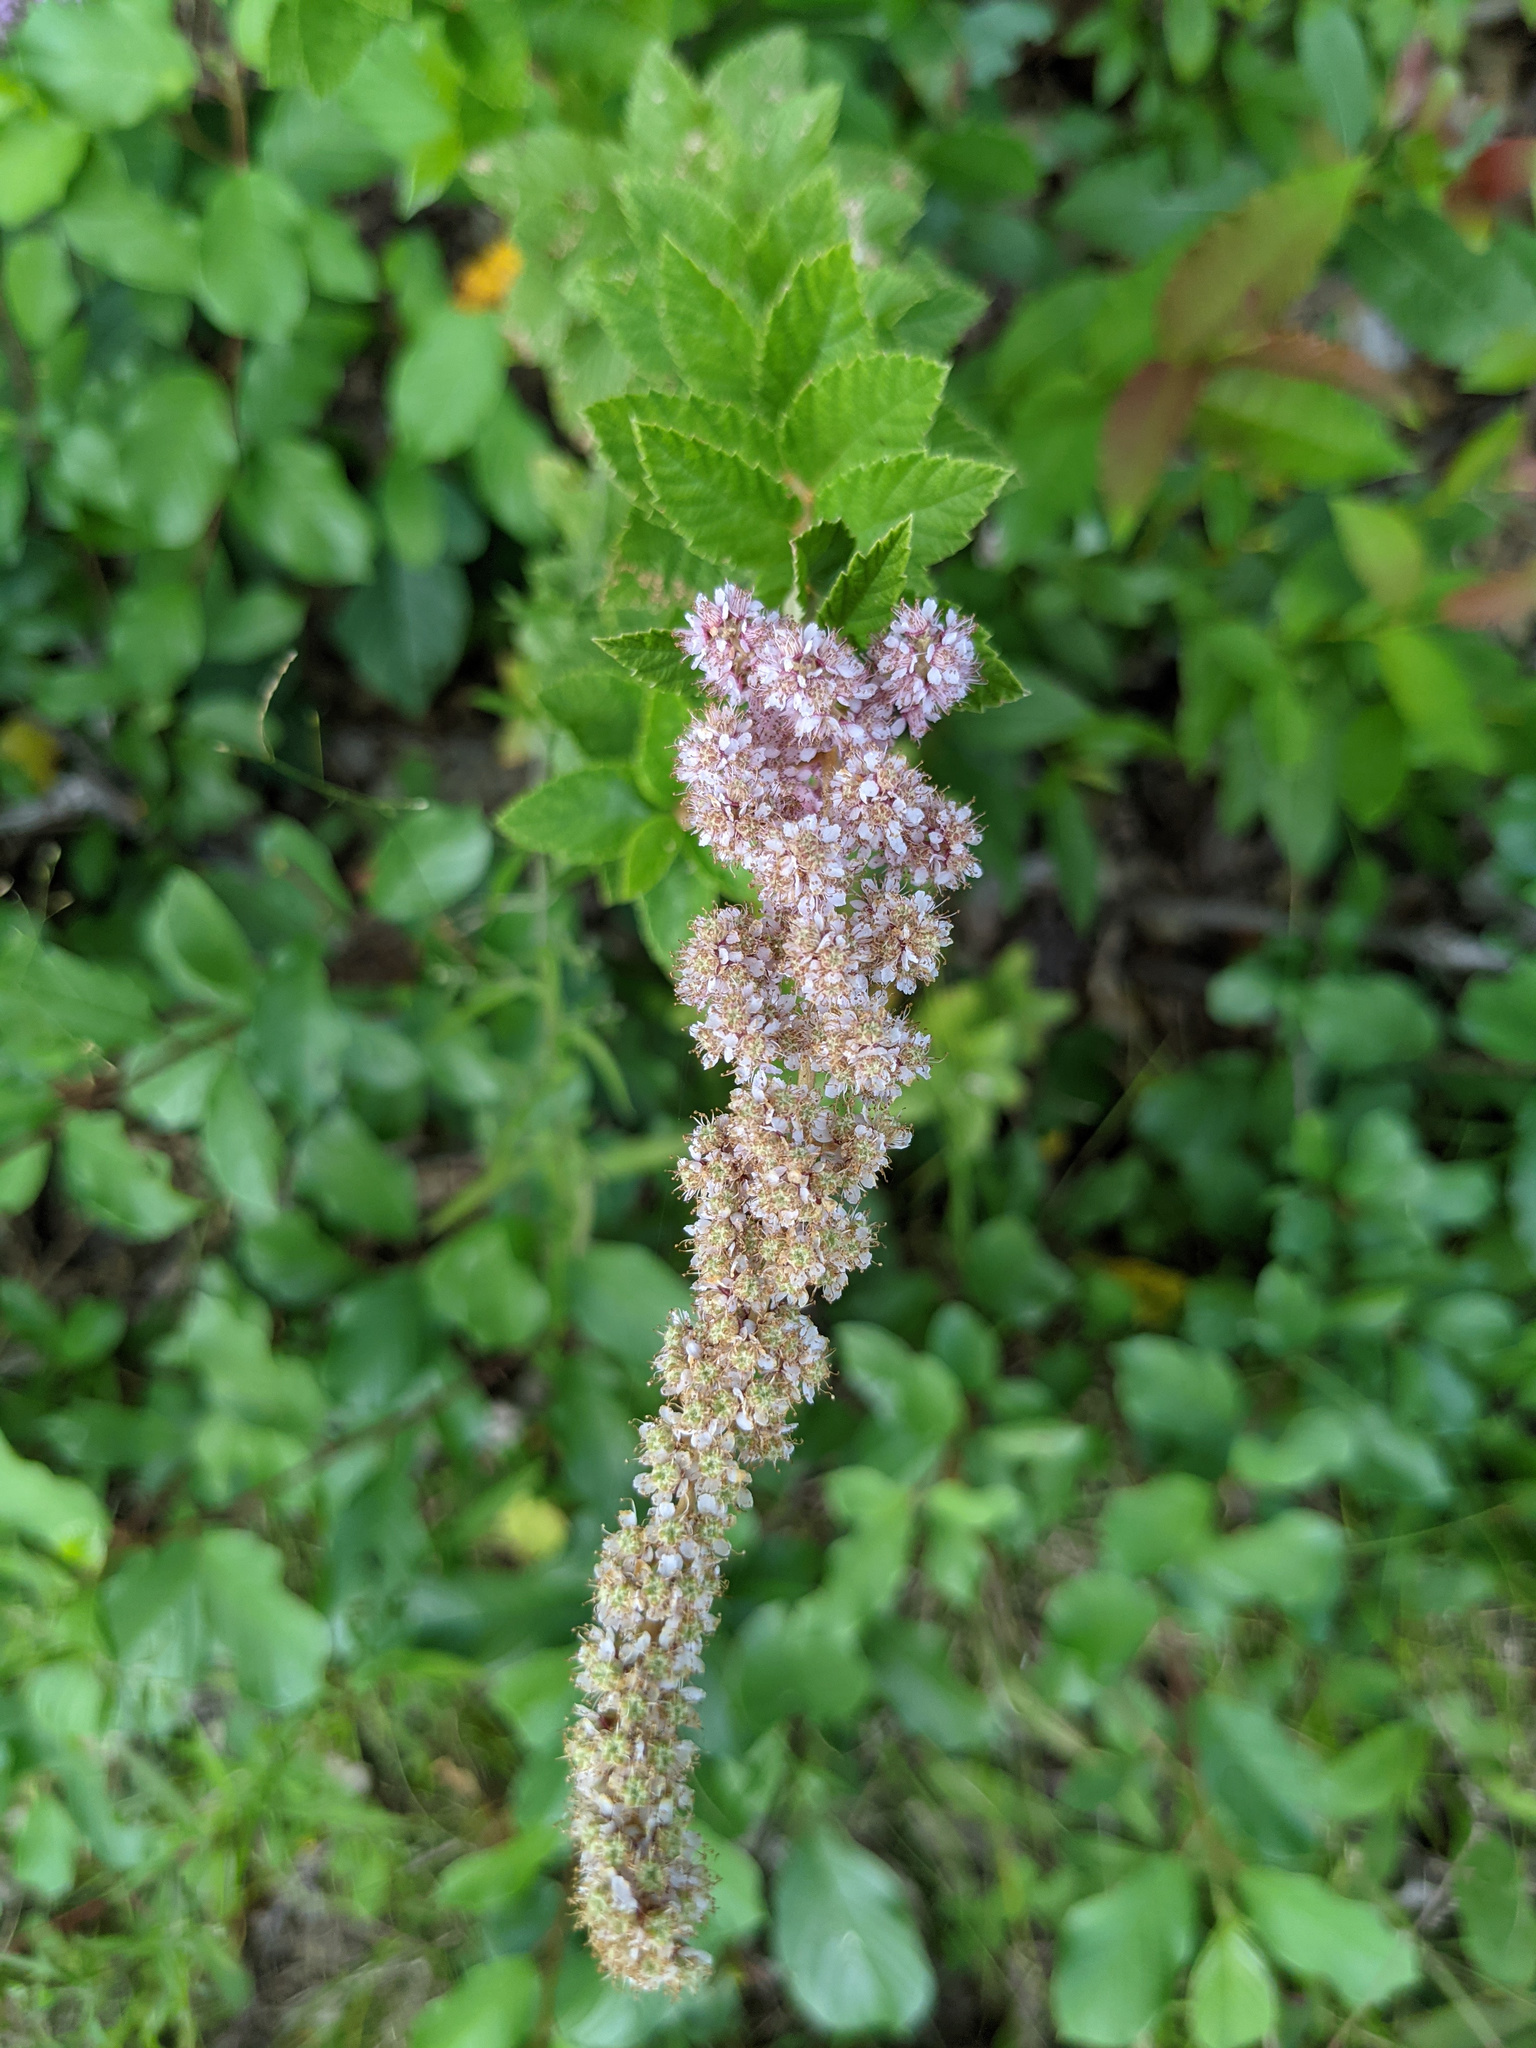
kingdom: Plantae
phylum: Tracheophyta
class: Magnoliopsida
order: Rosales
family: Rosaceae
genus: Spiraea
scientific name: Spiraea tomentosa
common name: Hardhack
